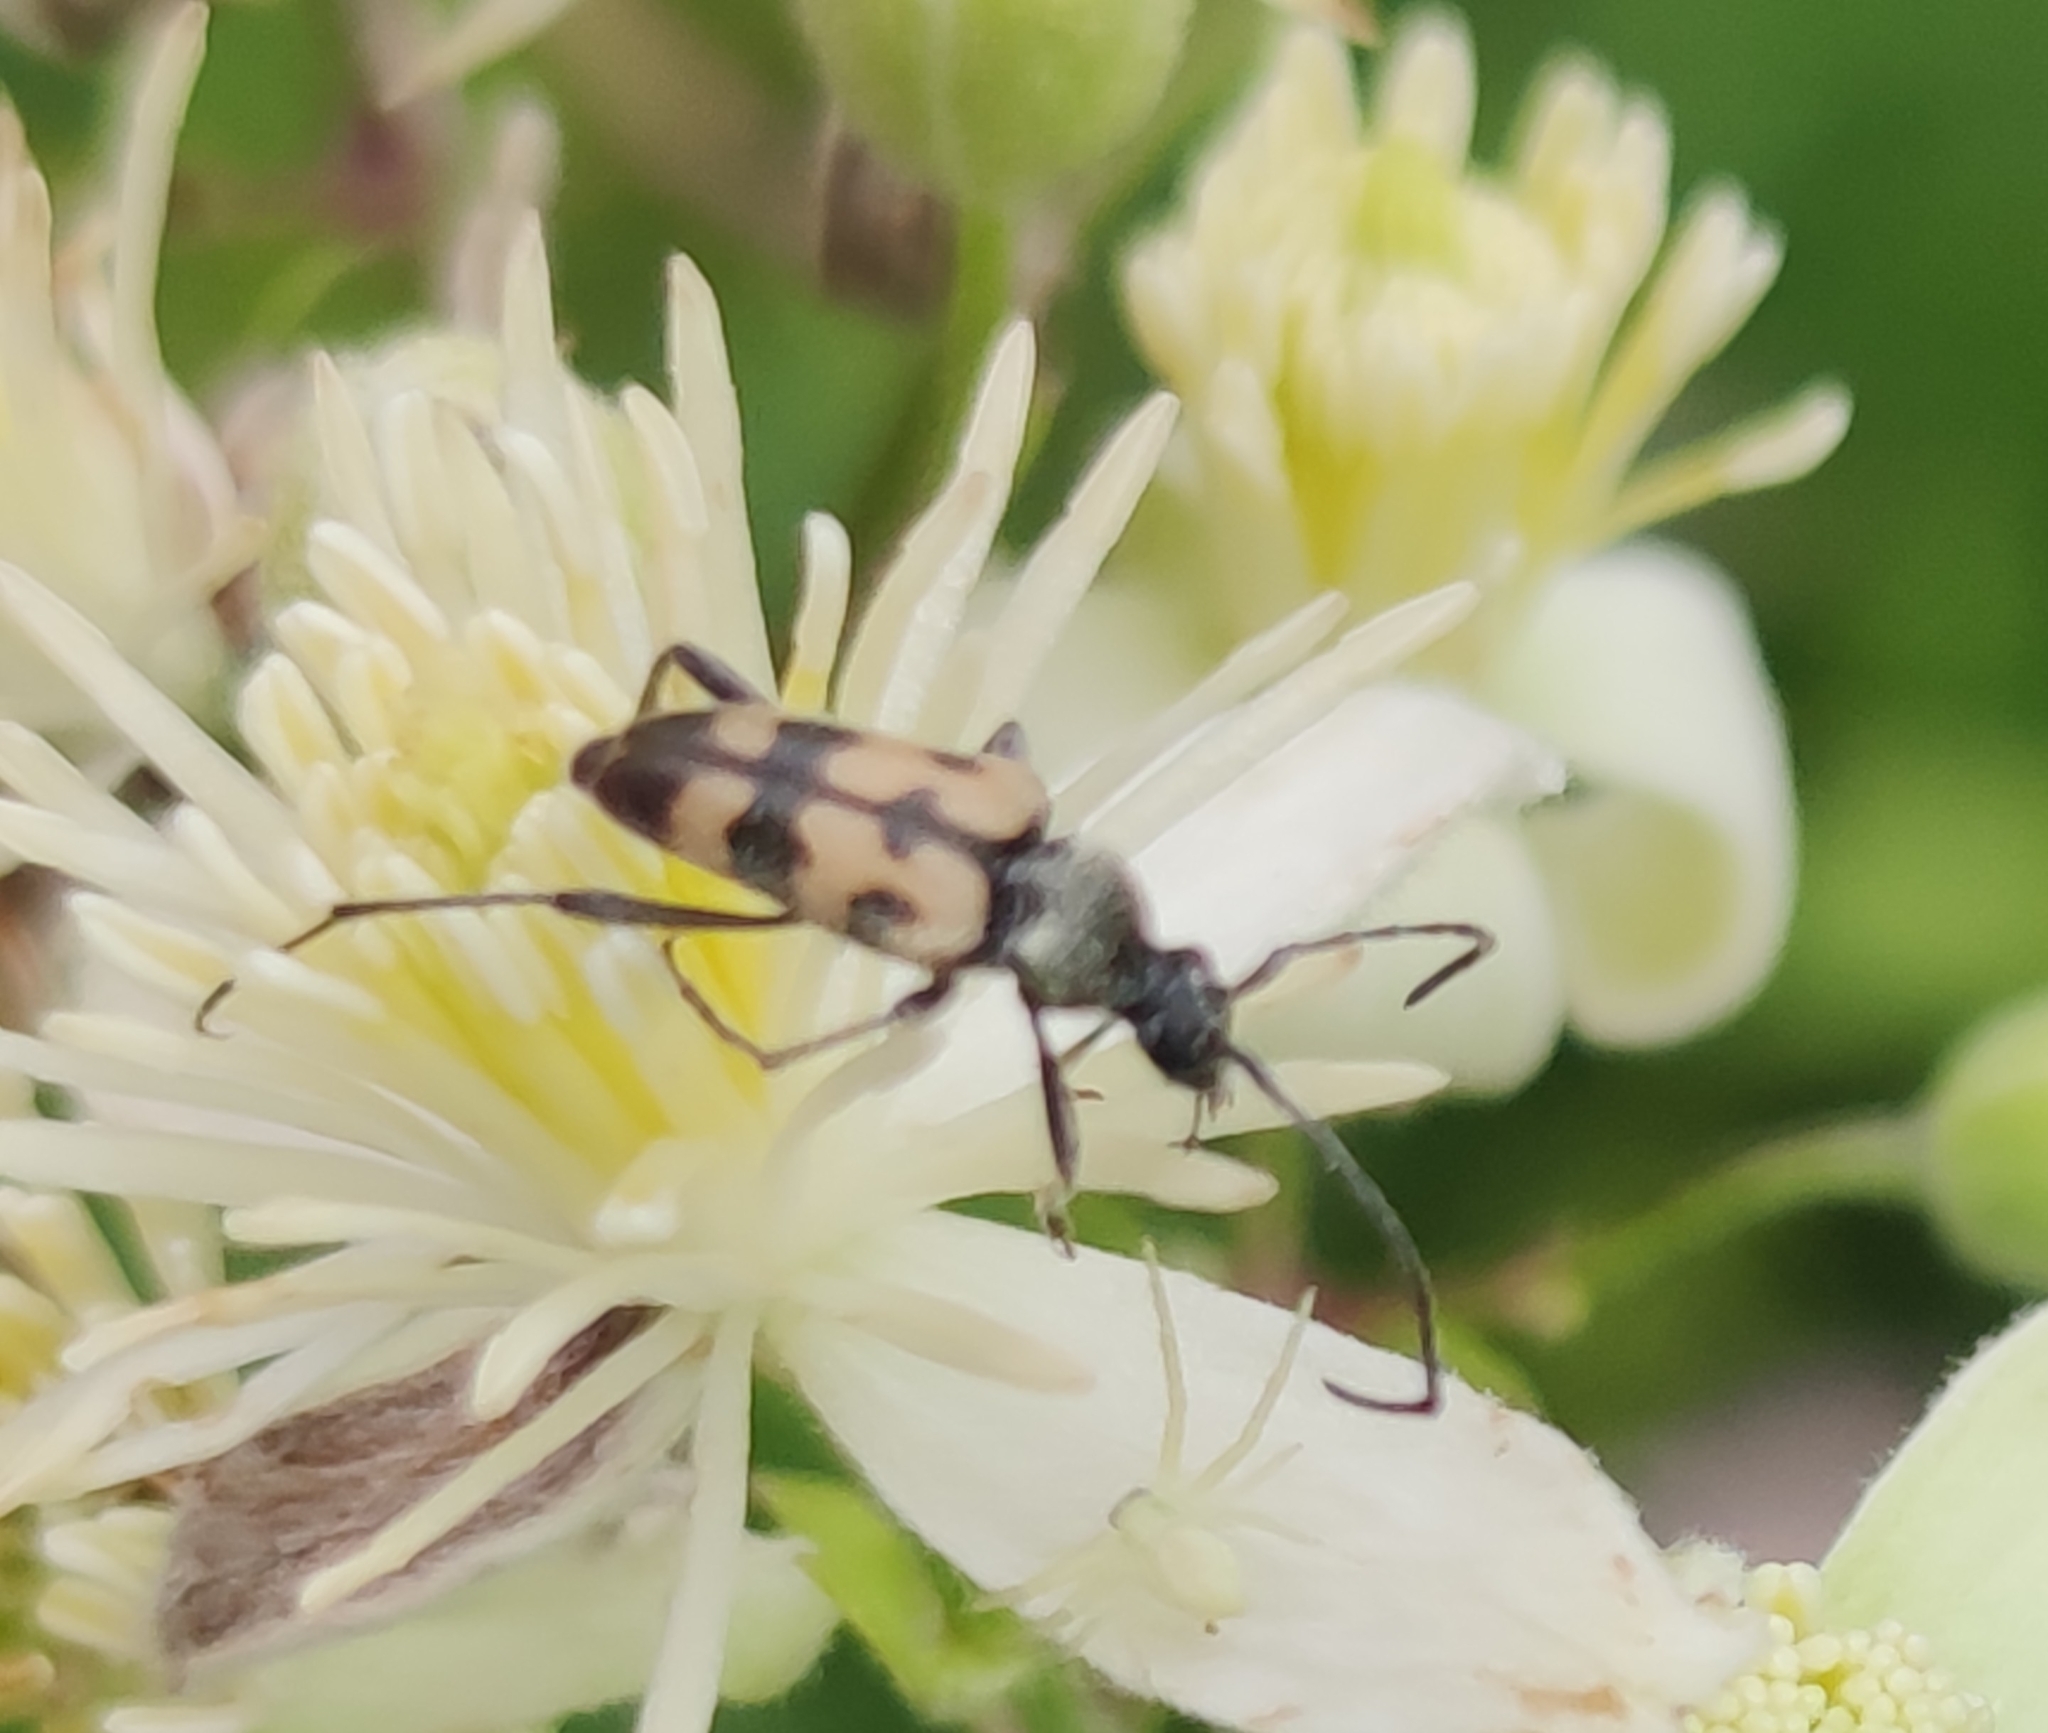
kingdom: Animalia
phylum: Arthropoda
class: Insecta
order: Coleoptera
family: Cerambycidae
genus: Pachytodes
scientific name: Pachytodes
